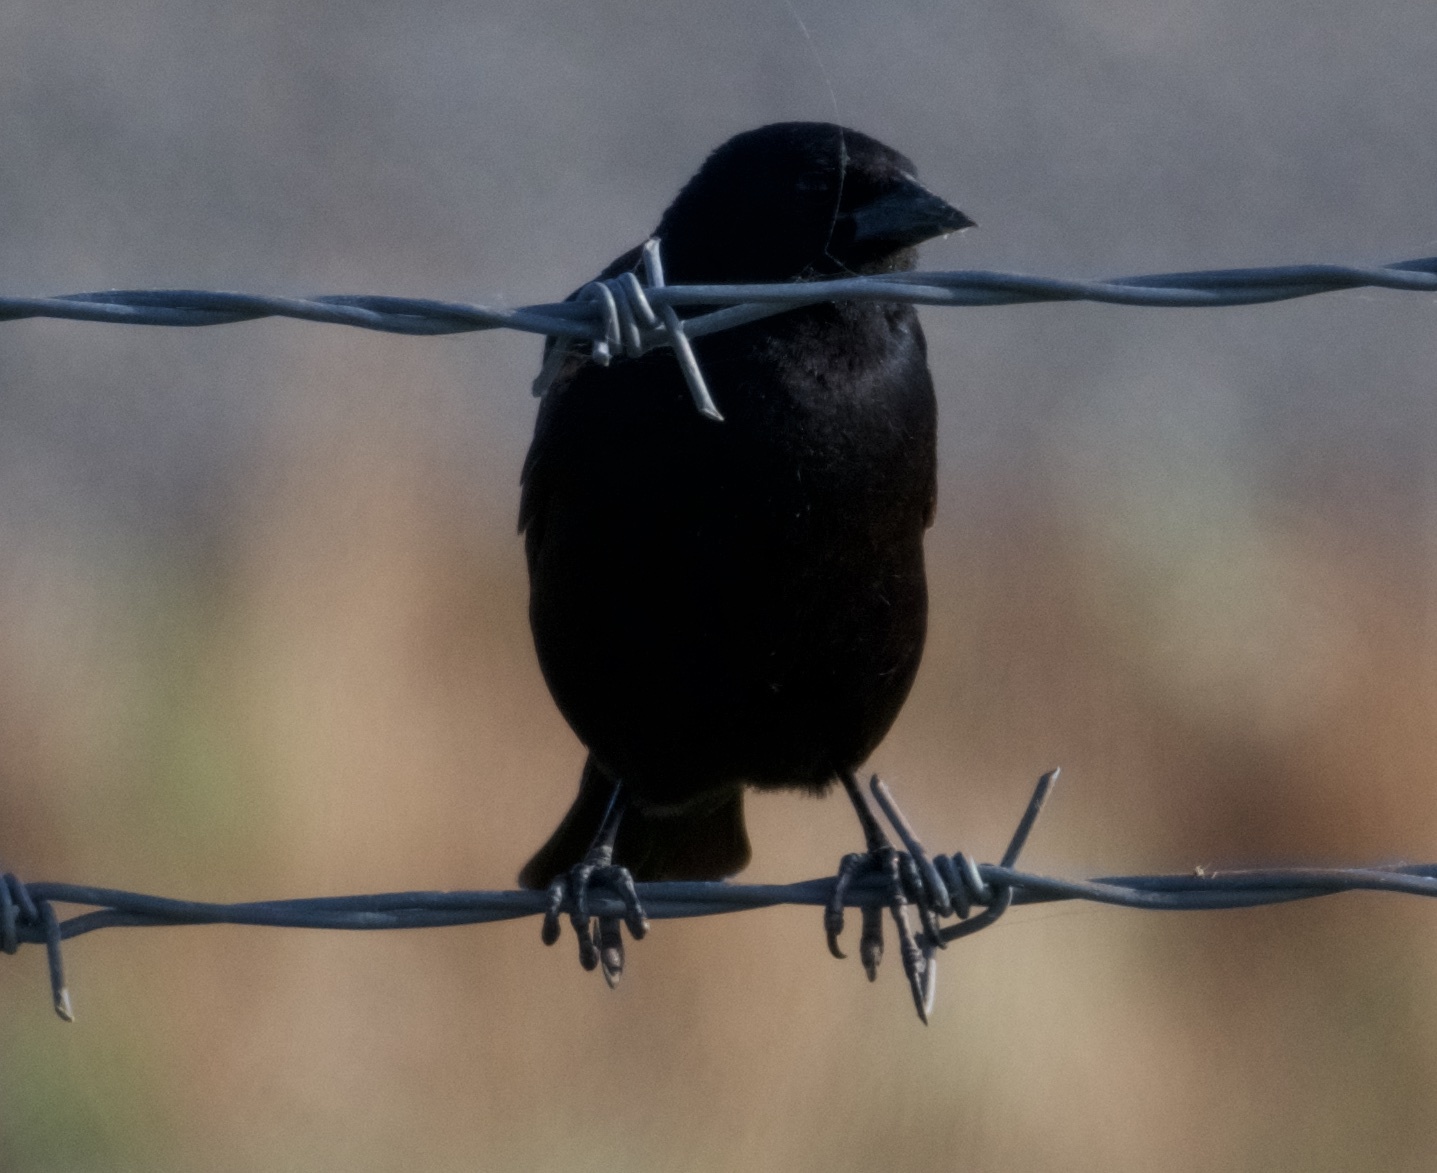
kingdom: Animalia
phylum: Chordata
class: Aves
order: Passeriformes
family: Icteridae
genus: Agelaius
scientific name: Agelaius phoeniceus
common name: Red-winged blackbird
